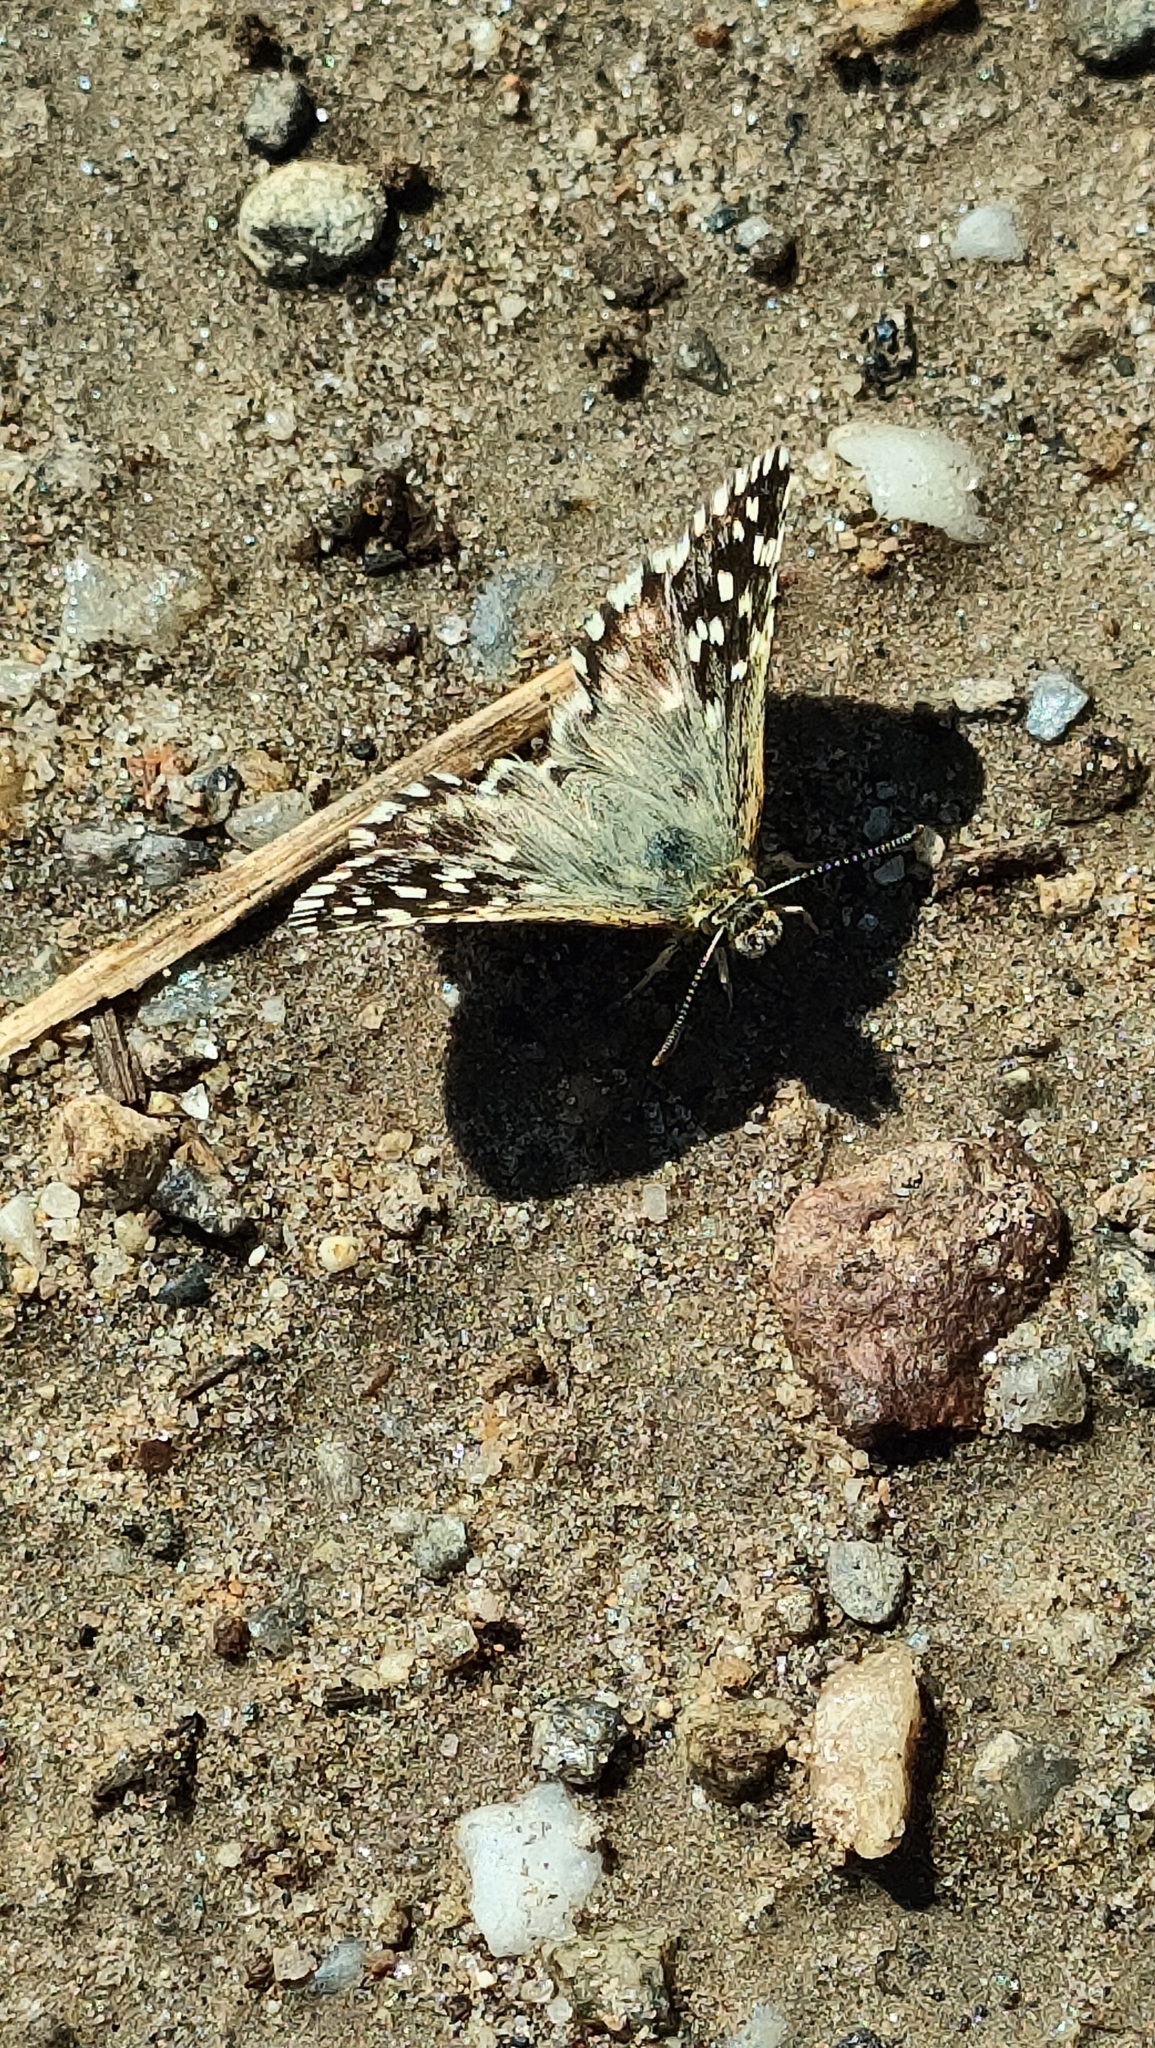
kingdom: Animalia
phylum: Arthropoda
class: Insecta
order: Lepidoptera
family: Hesperiidae
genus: Pyrgus
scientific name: Pyrgus malvoides
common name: Southern grizzled skipper
